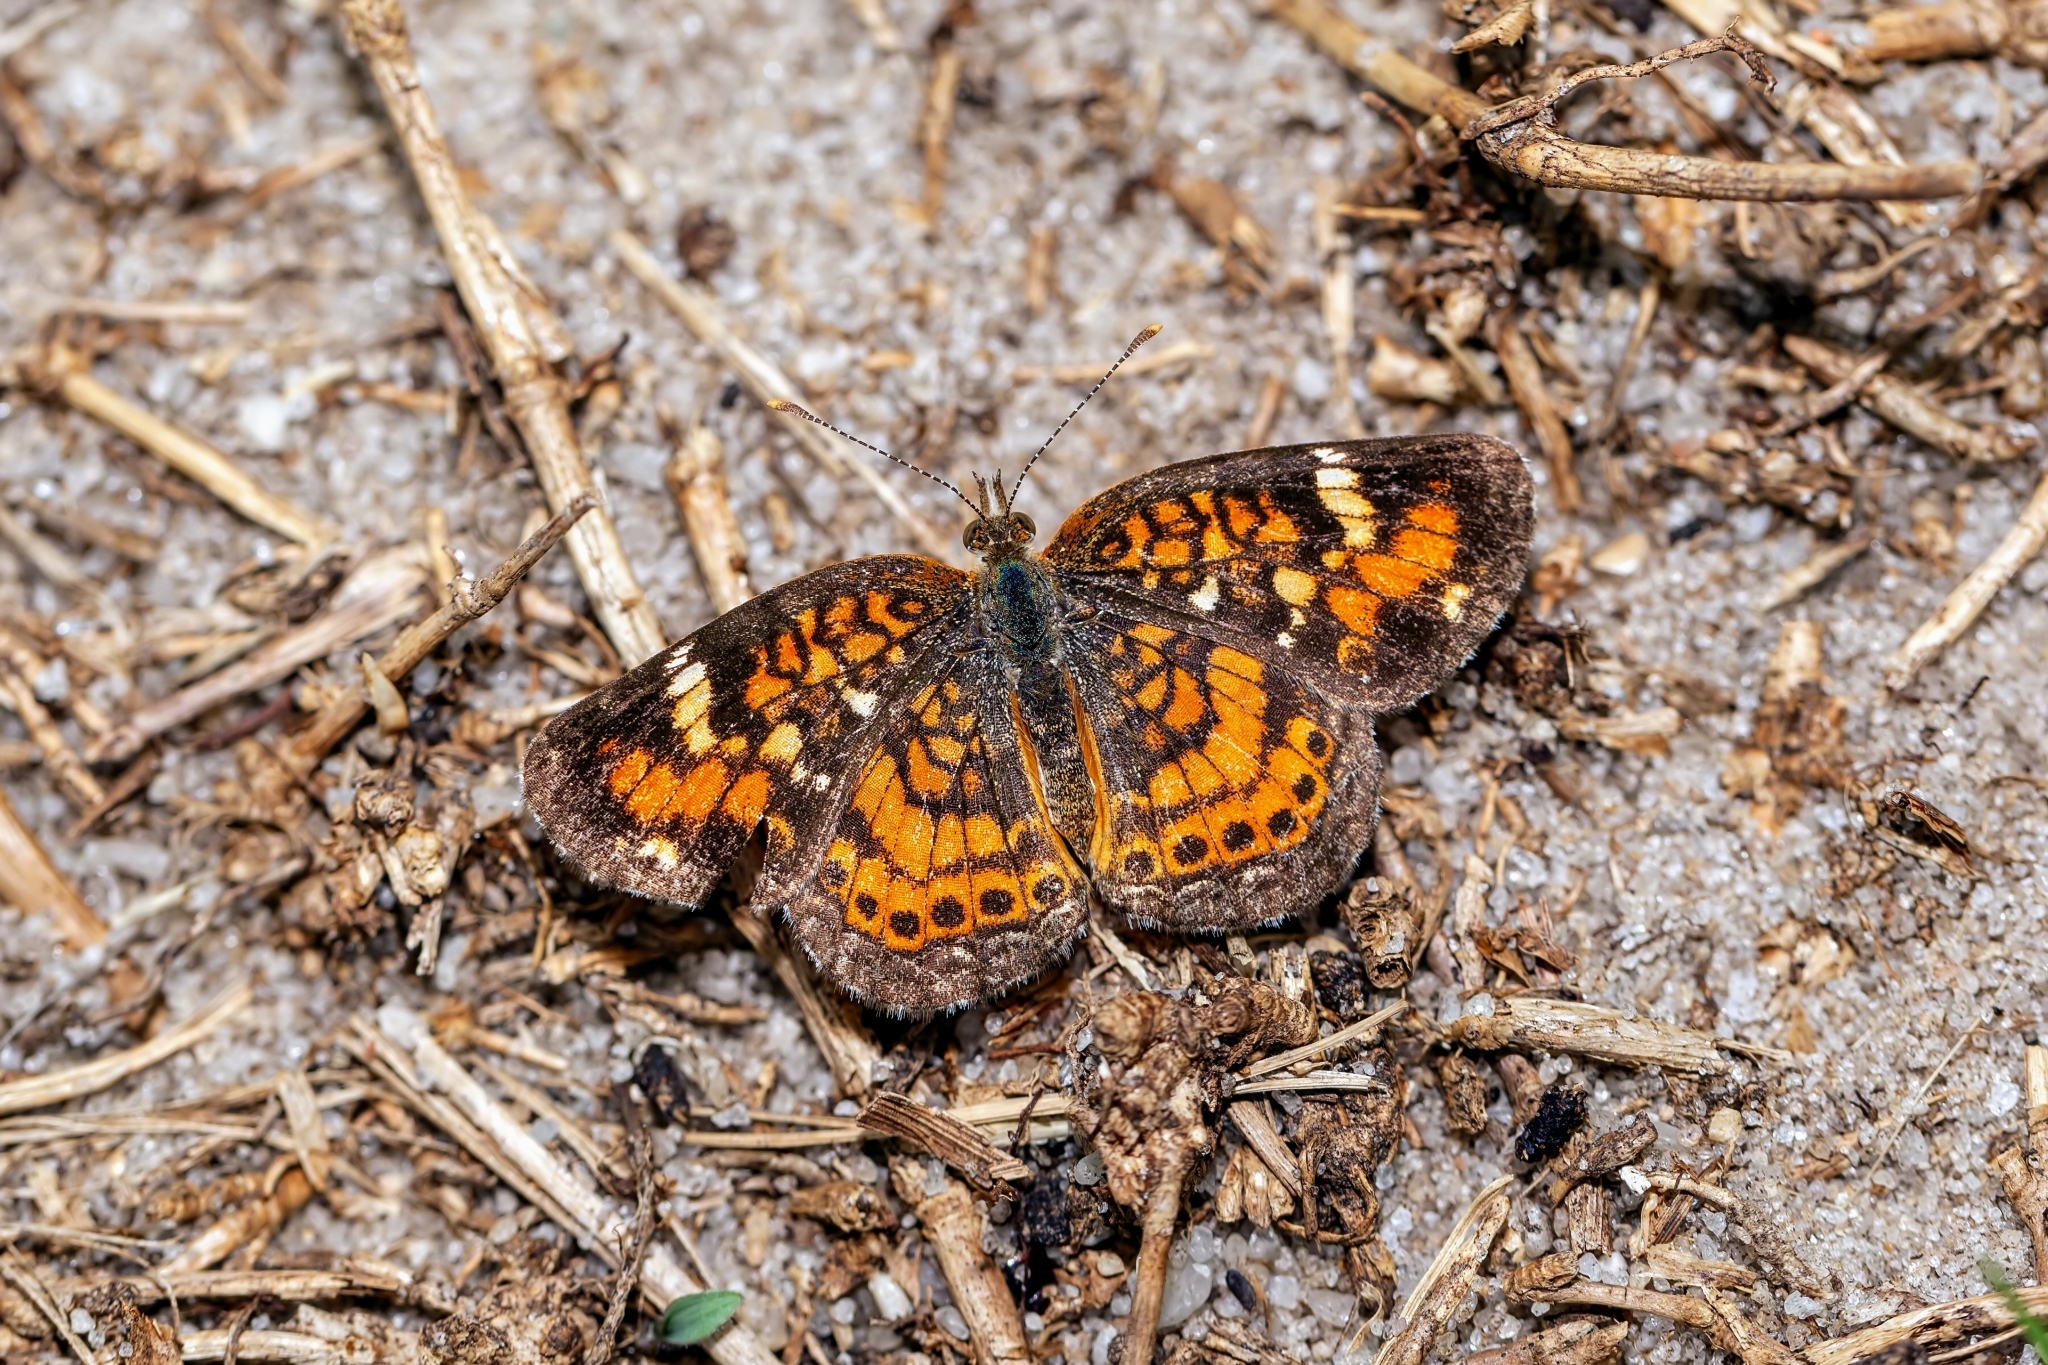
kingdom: Animalia
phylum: Arthropoda
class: Insecta
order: Lepidoptera
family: Nymphalidae
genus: Phyciodes
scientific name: Phyciodes phaon
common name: Phaon crescent
